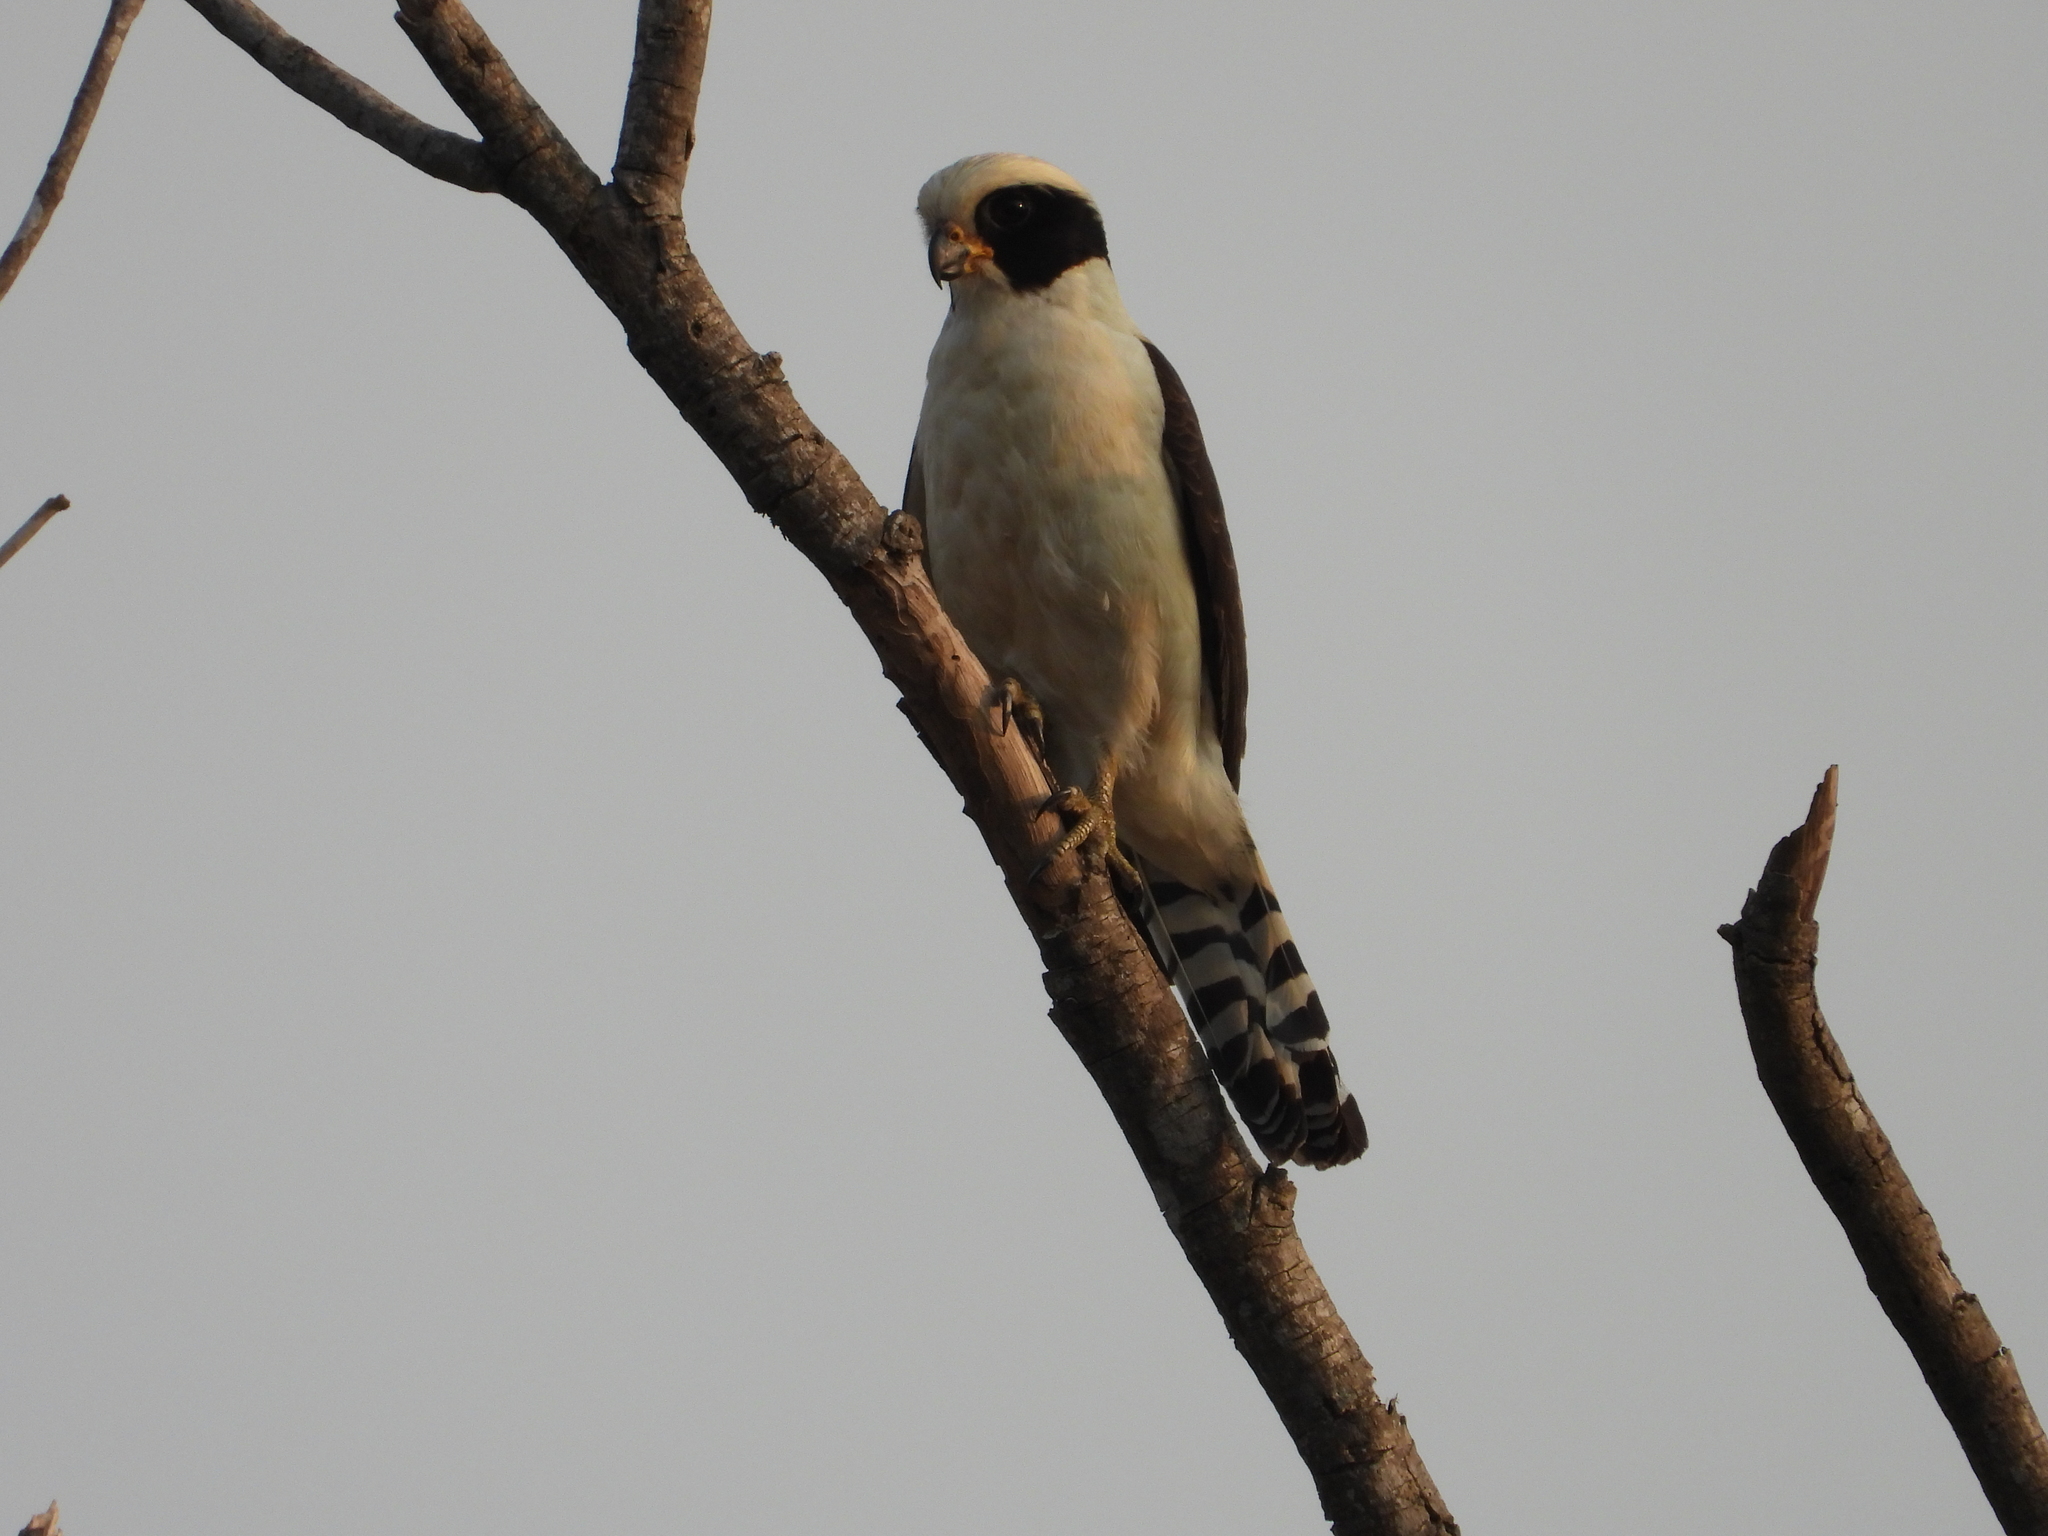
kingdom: Animalia
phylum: Chordata
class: Aves
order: Falconiformes
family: Falconidae
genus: Herpetotheres
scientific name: Herpetotheres cachinnans
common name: Laughing falcon
